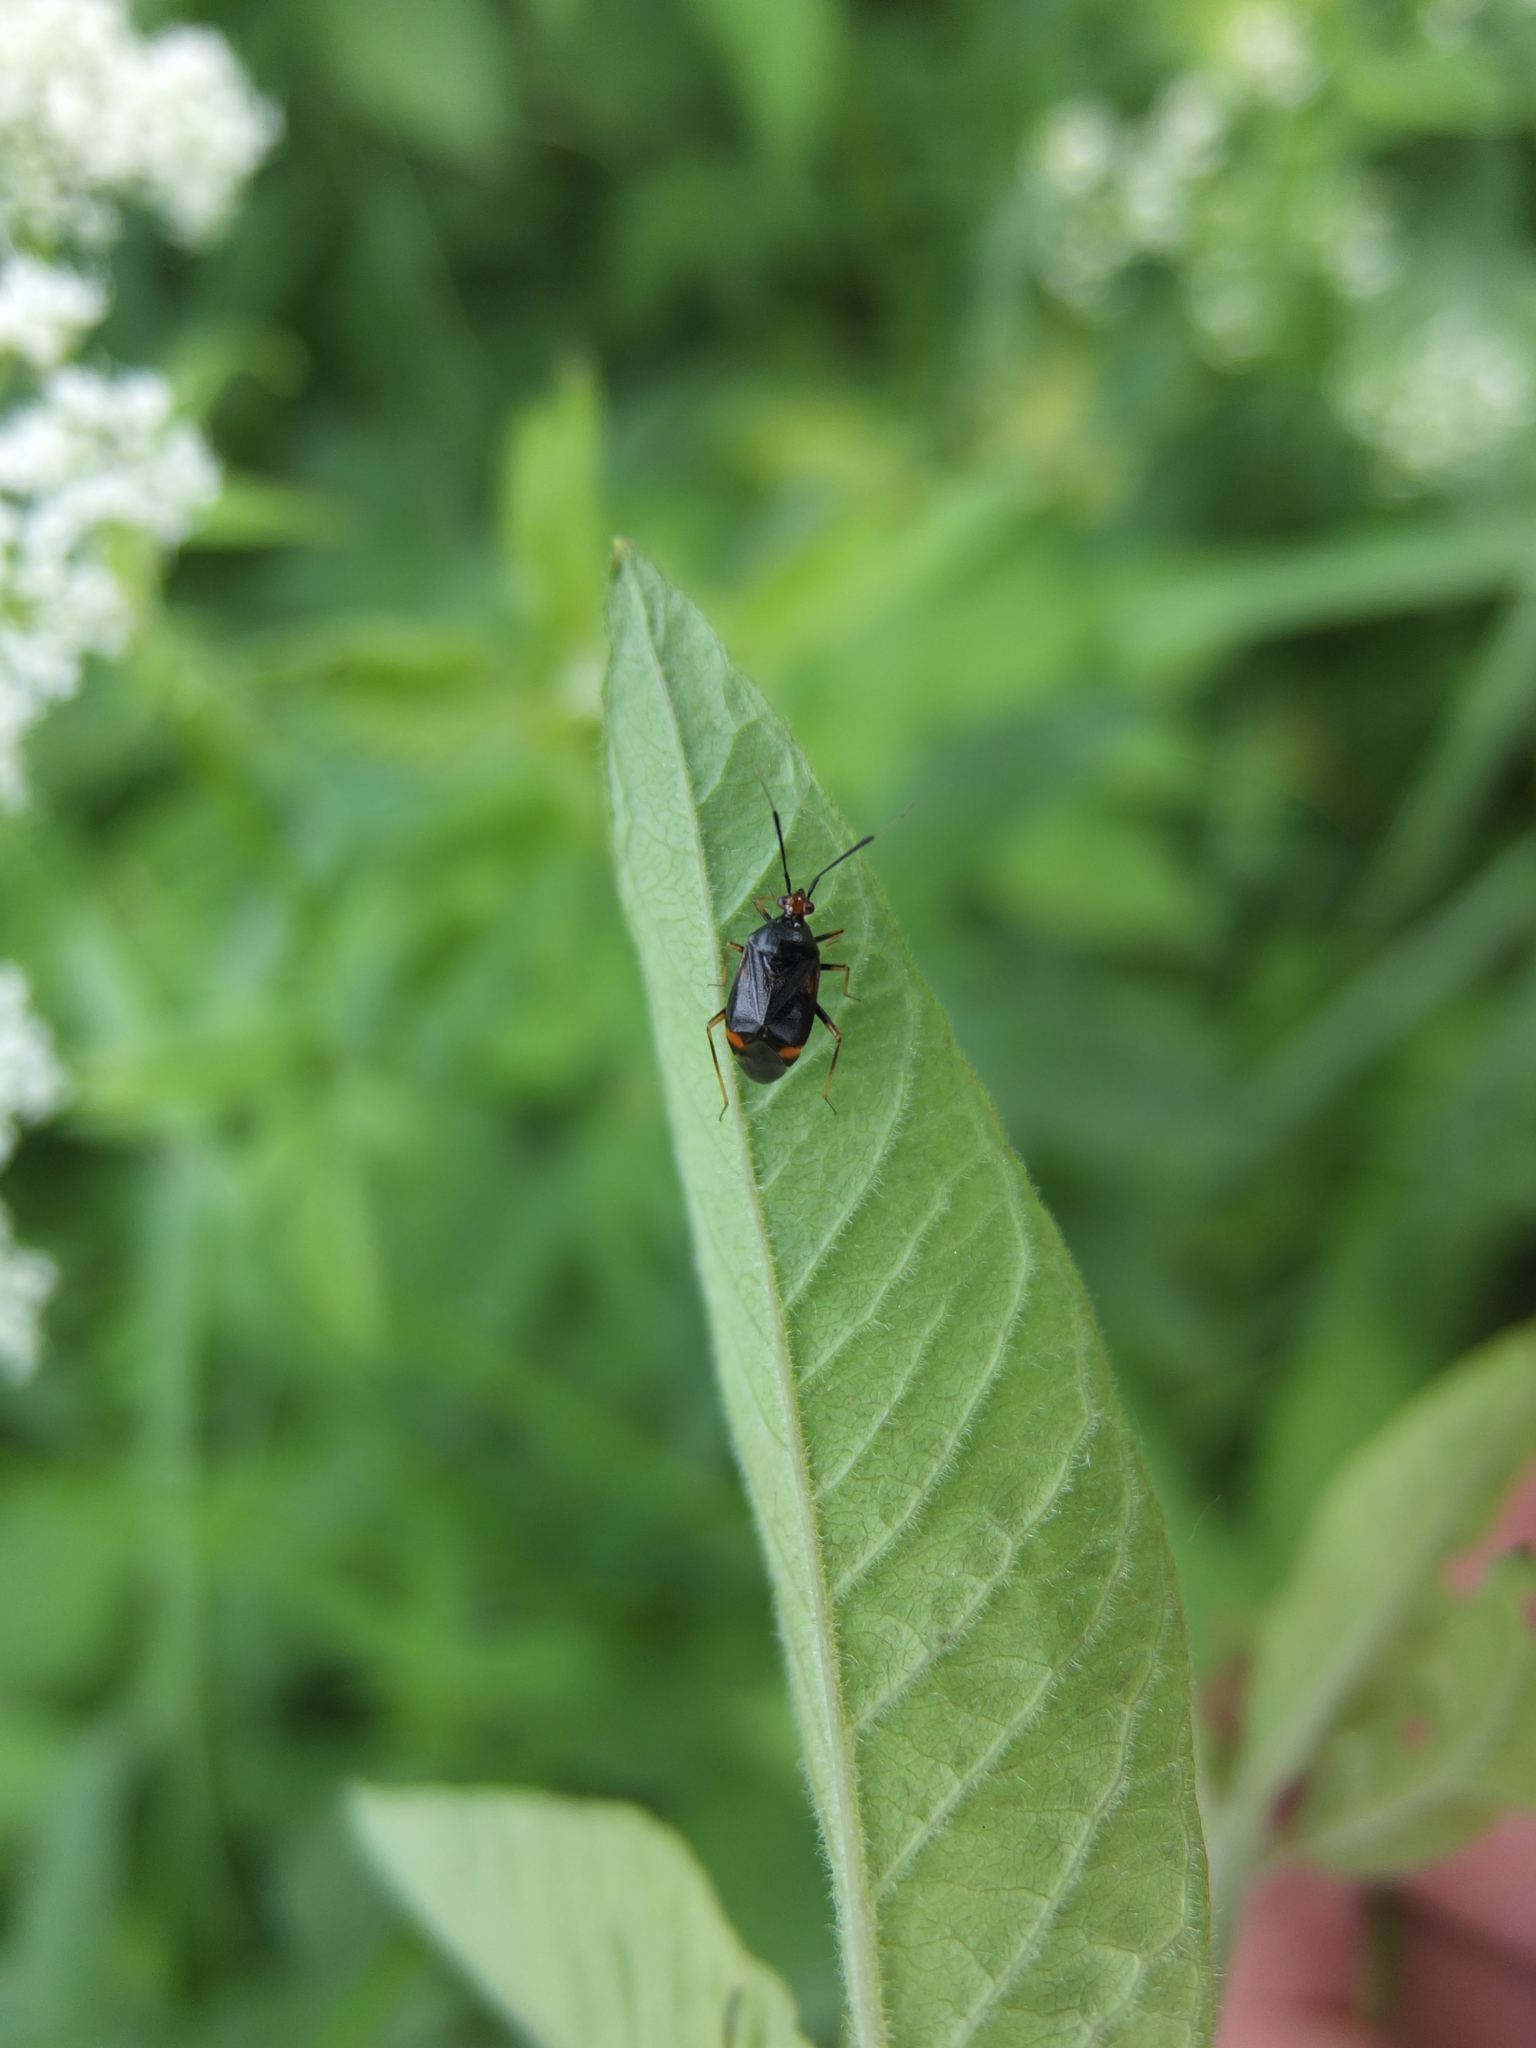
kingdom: Animalia
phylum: Arthropoda
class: Insecta
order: Hemiptera
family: Miridae
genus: Deraeocoris
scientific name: Deraeocoris ruber
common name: Plant bug
